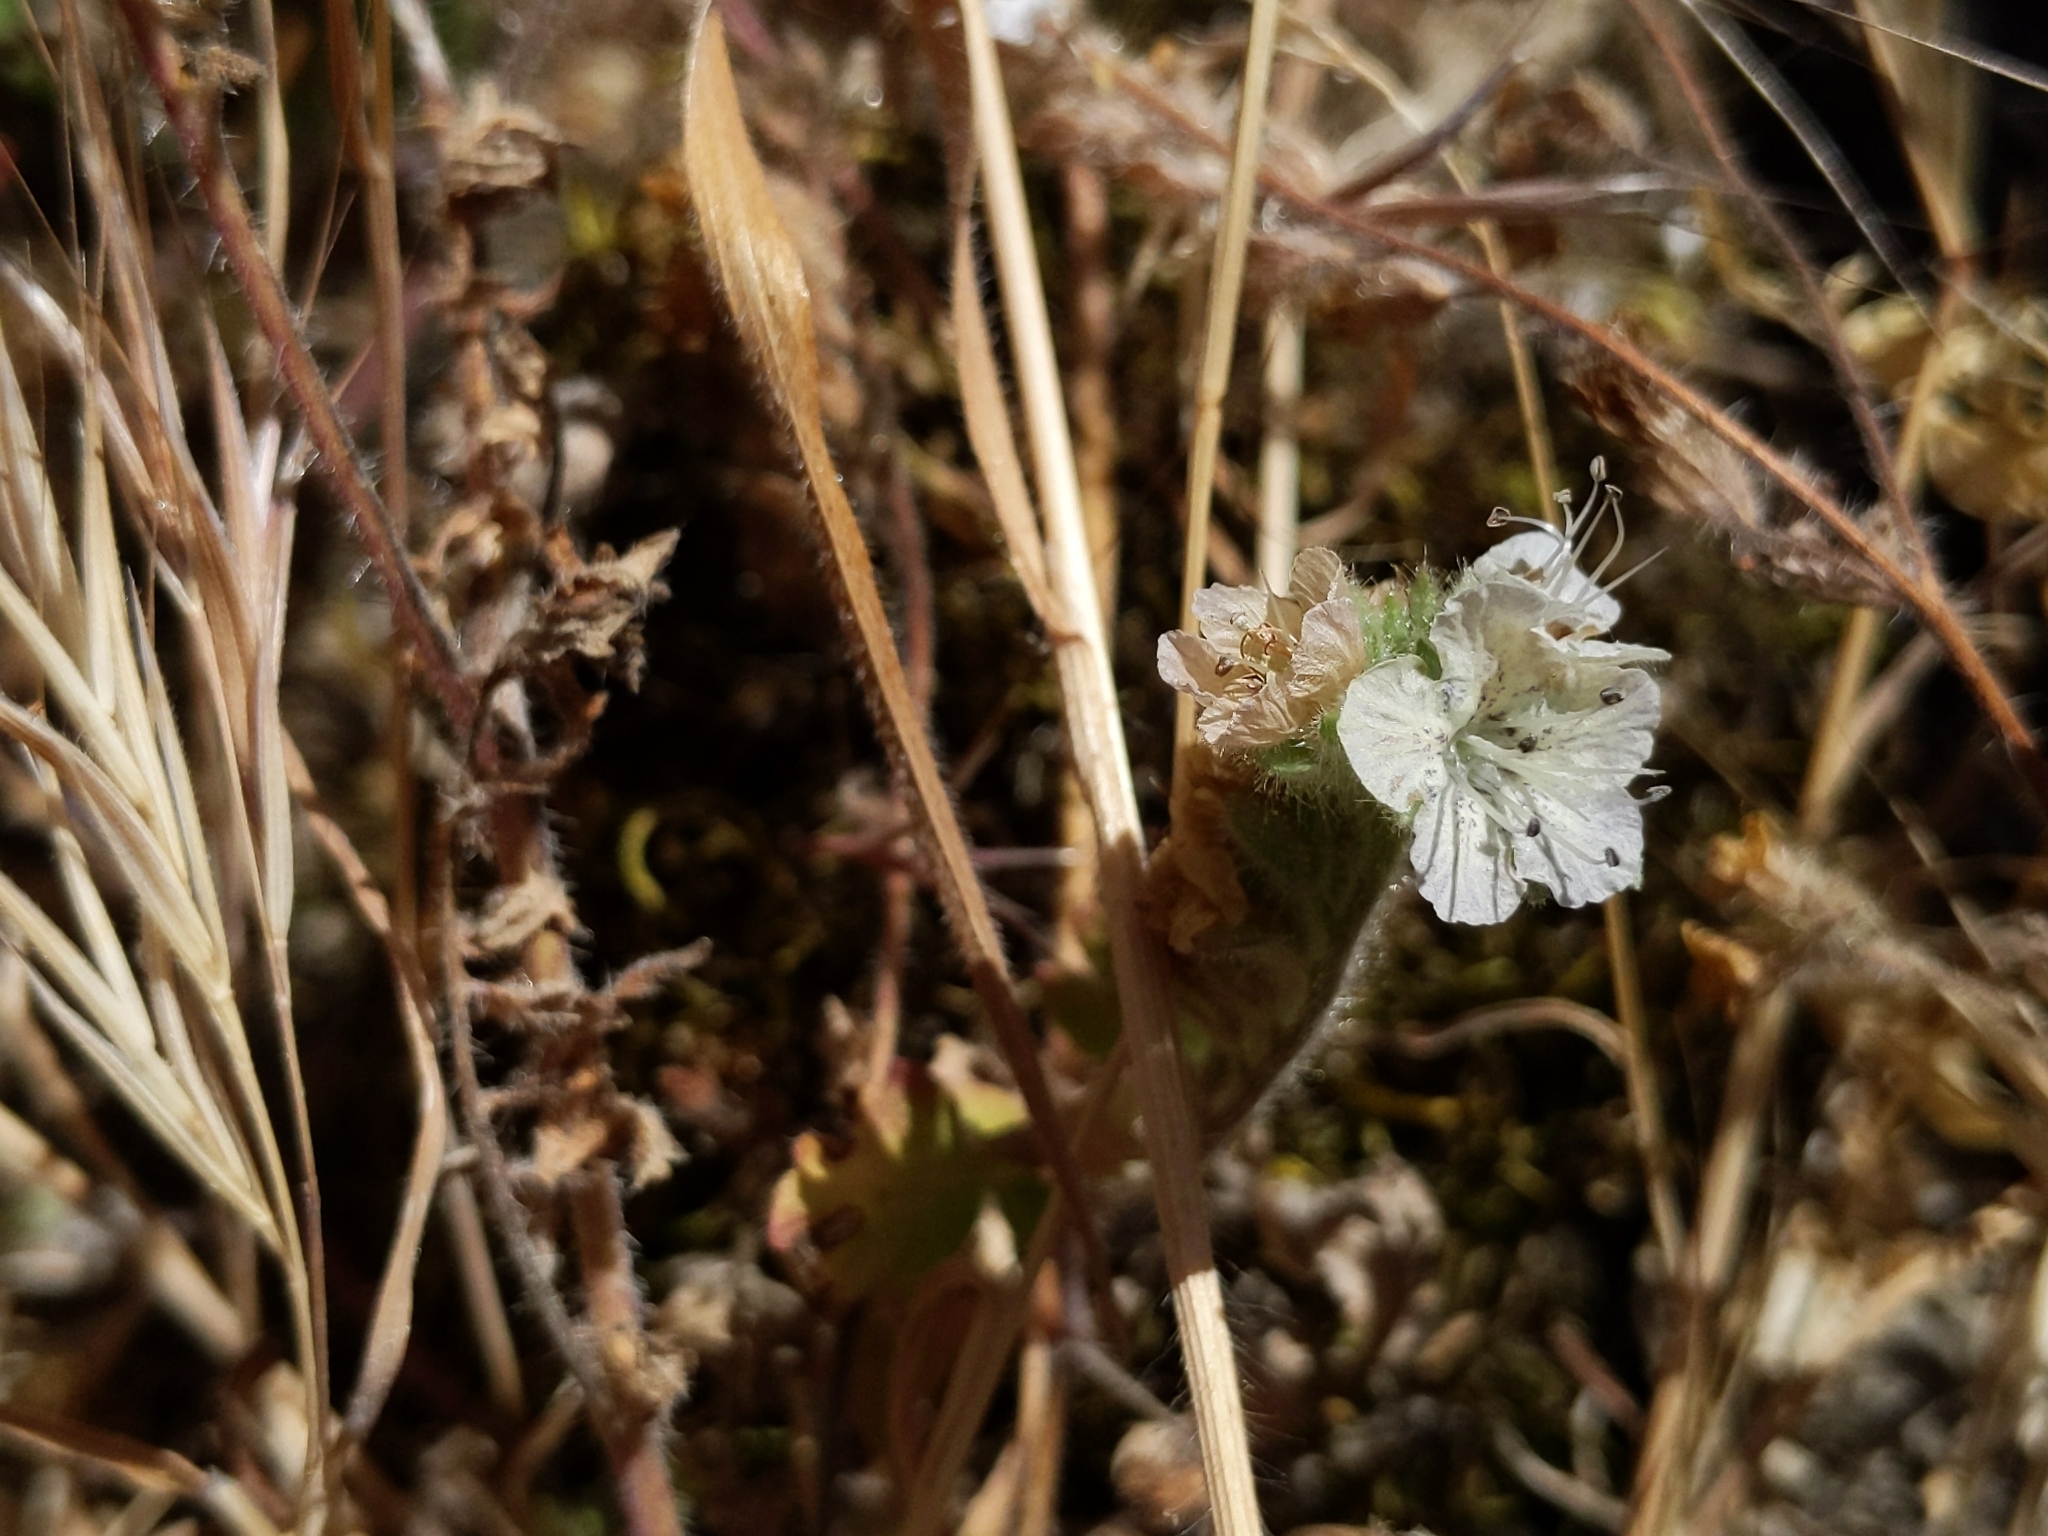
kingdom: Plantae
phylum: Tracheophyta
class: Magnoliopsida
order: Boraginales
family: Hydrophyllaceae
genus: Phacelia
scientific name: Phacelia distans
